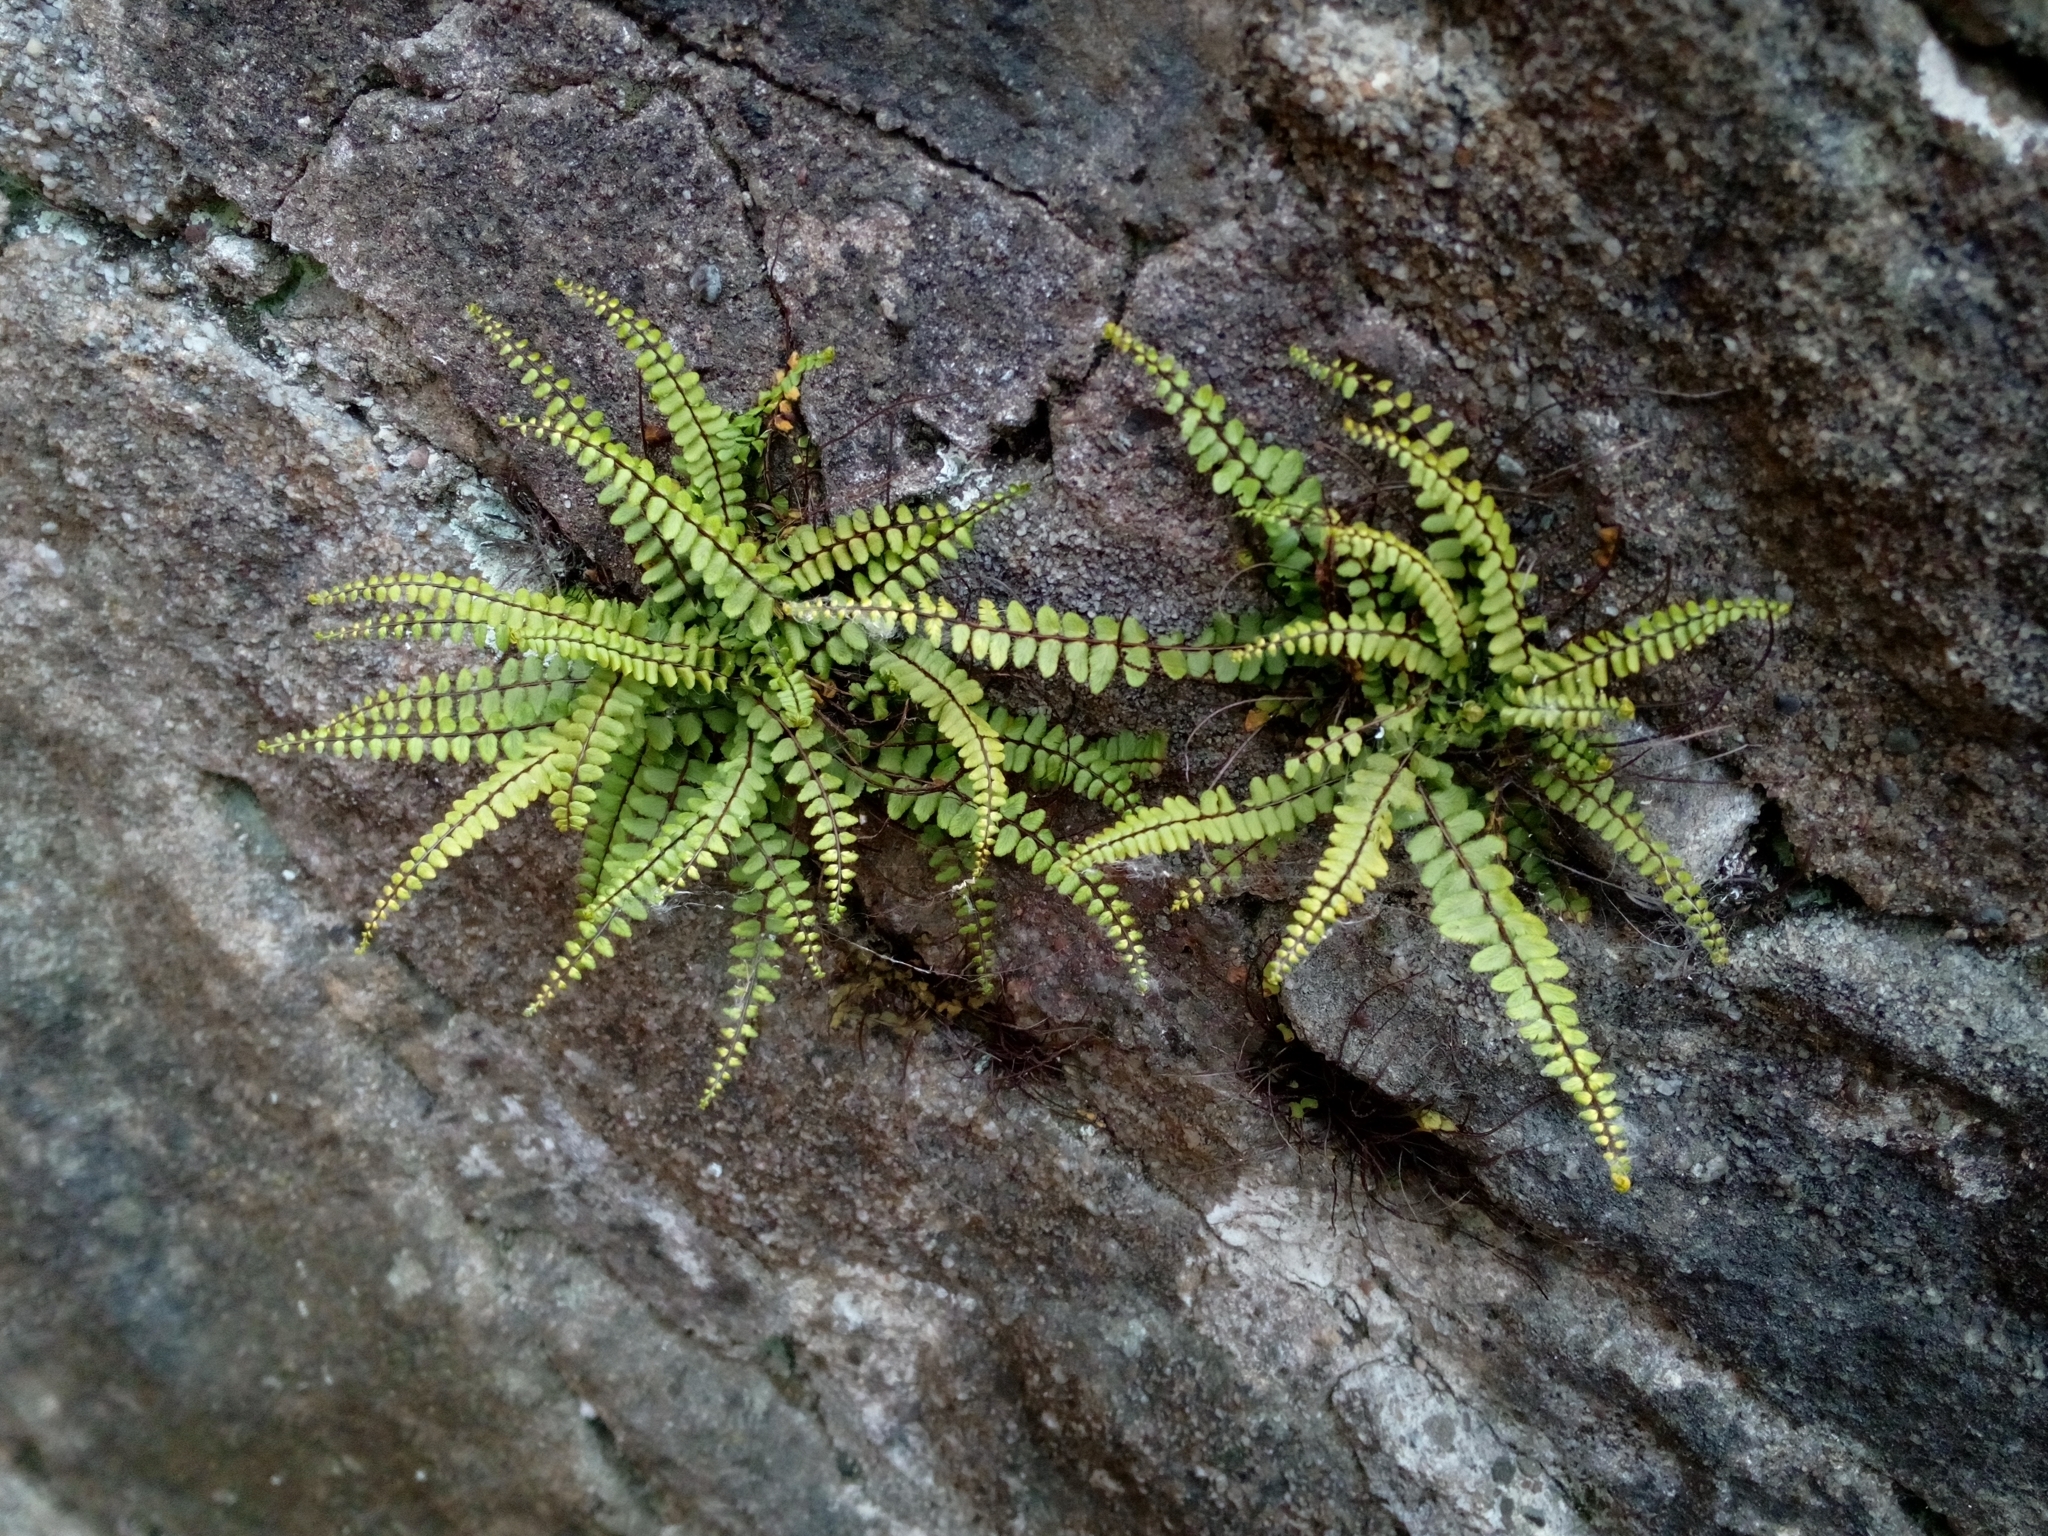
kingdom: Plantae
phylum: Tracheophyta
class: Polypodiopsida
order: Polypodiales
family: Aspleniaceae
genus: Asplenium
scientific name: Asplenium trichomanes
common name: Maidenhair spleenwort
